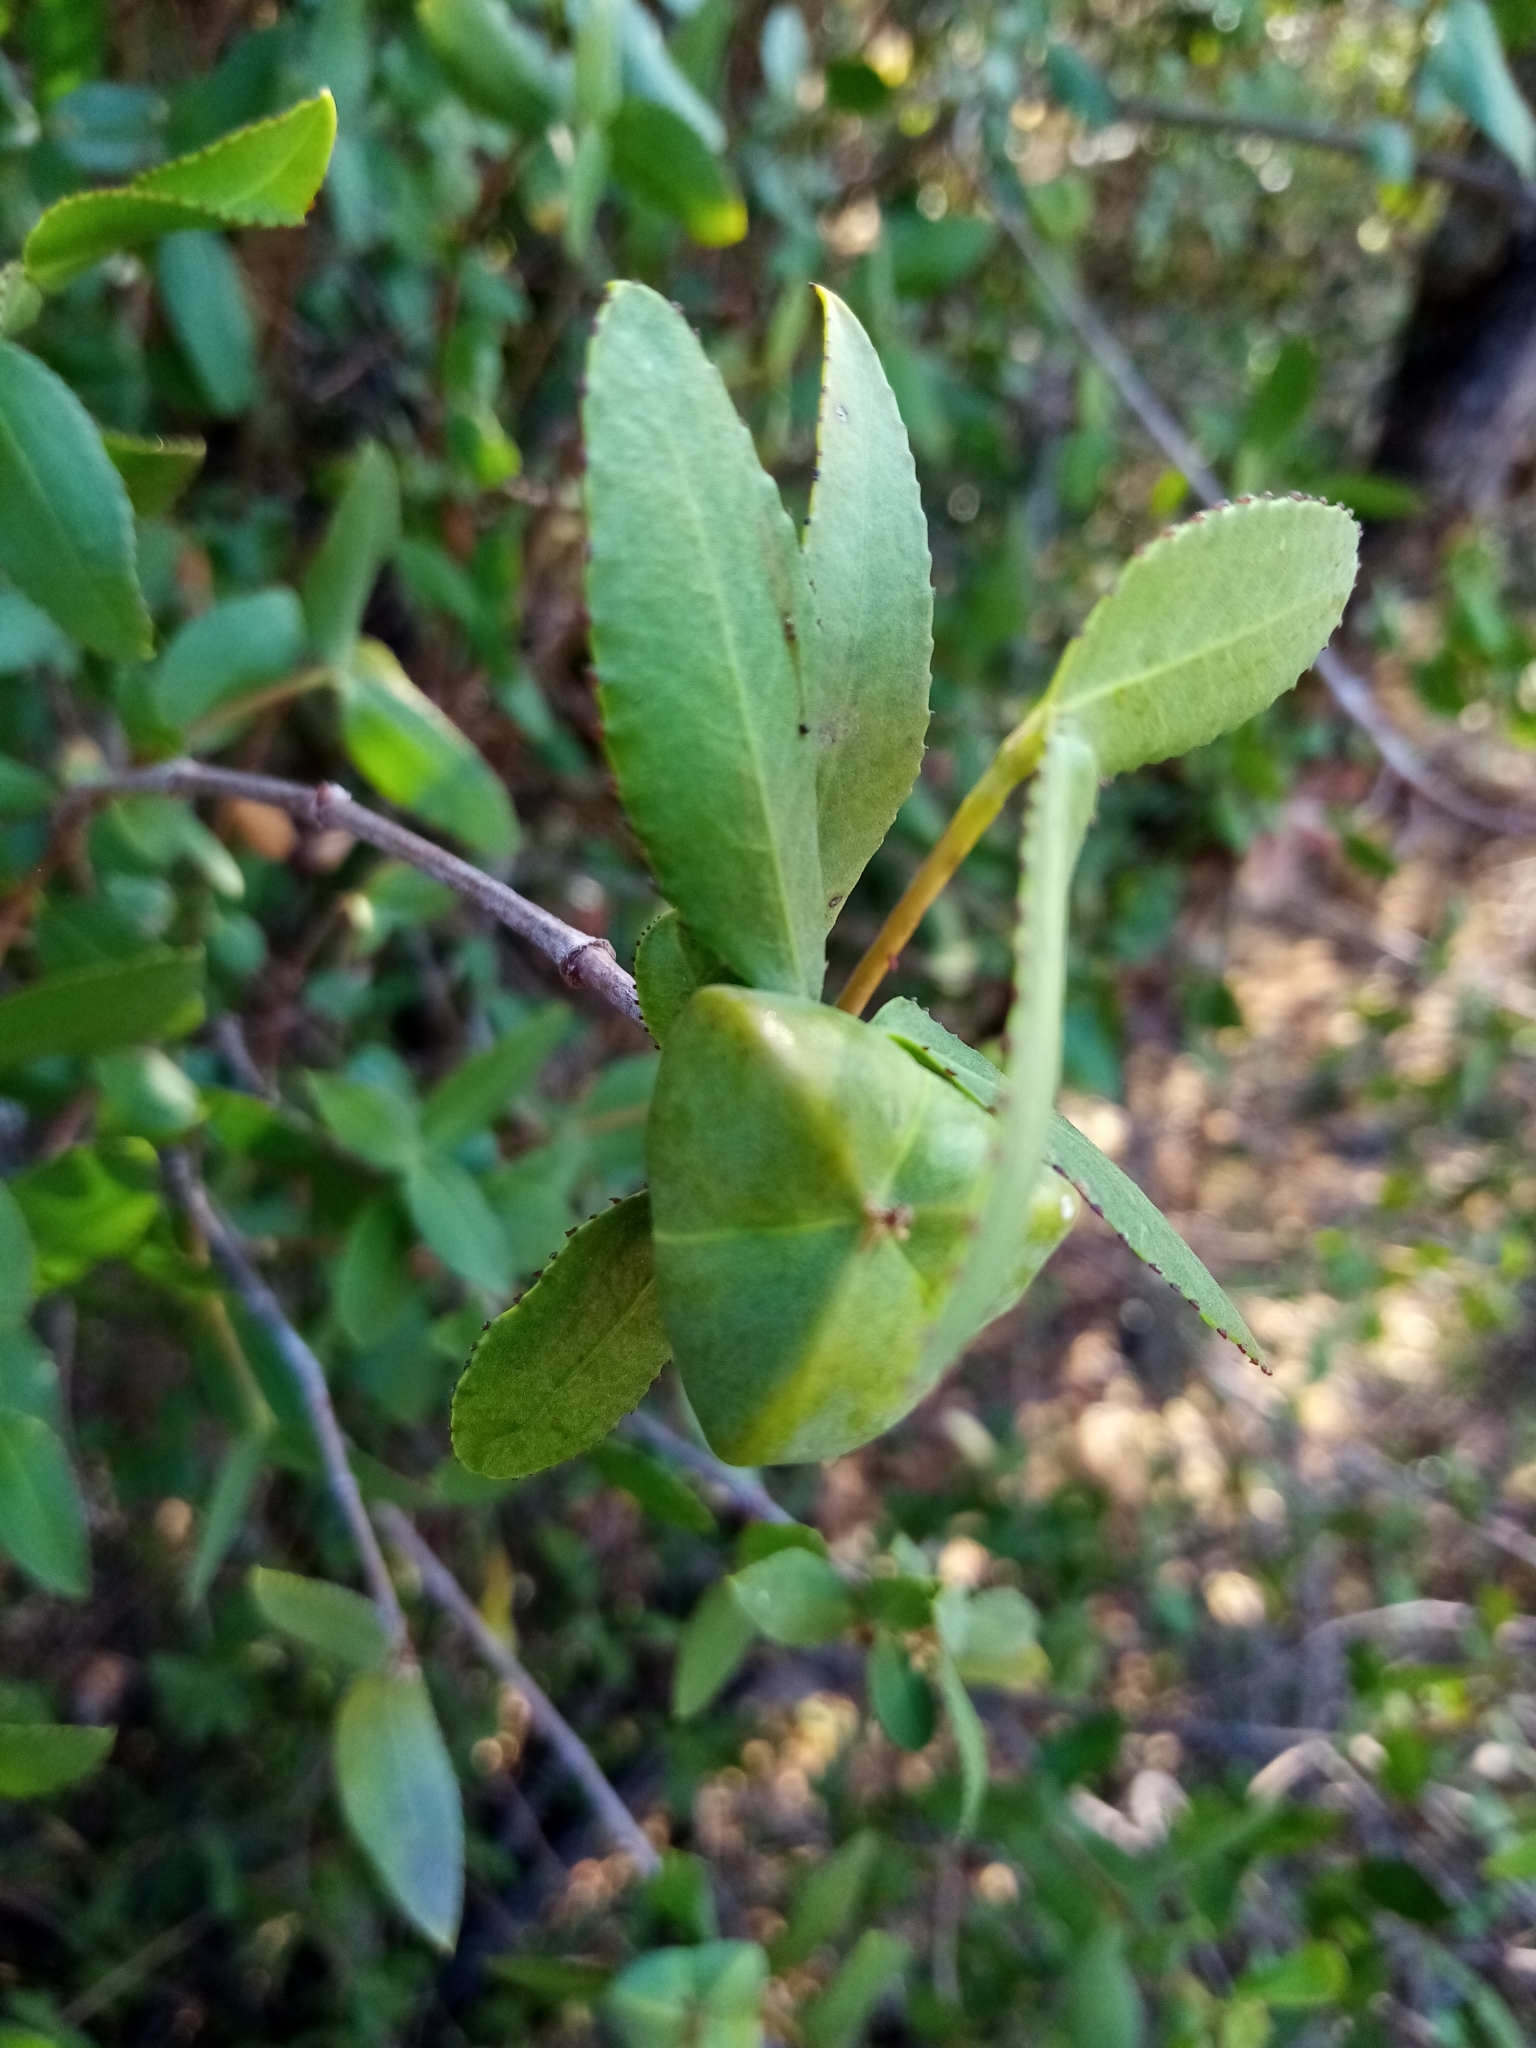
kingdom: Plantae
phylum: Tracheophyta
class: Magnoliopsida
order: Malpighiales
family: Euphorbiaceae
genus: Colliguaja
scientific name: Colliguaja odorifera
